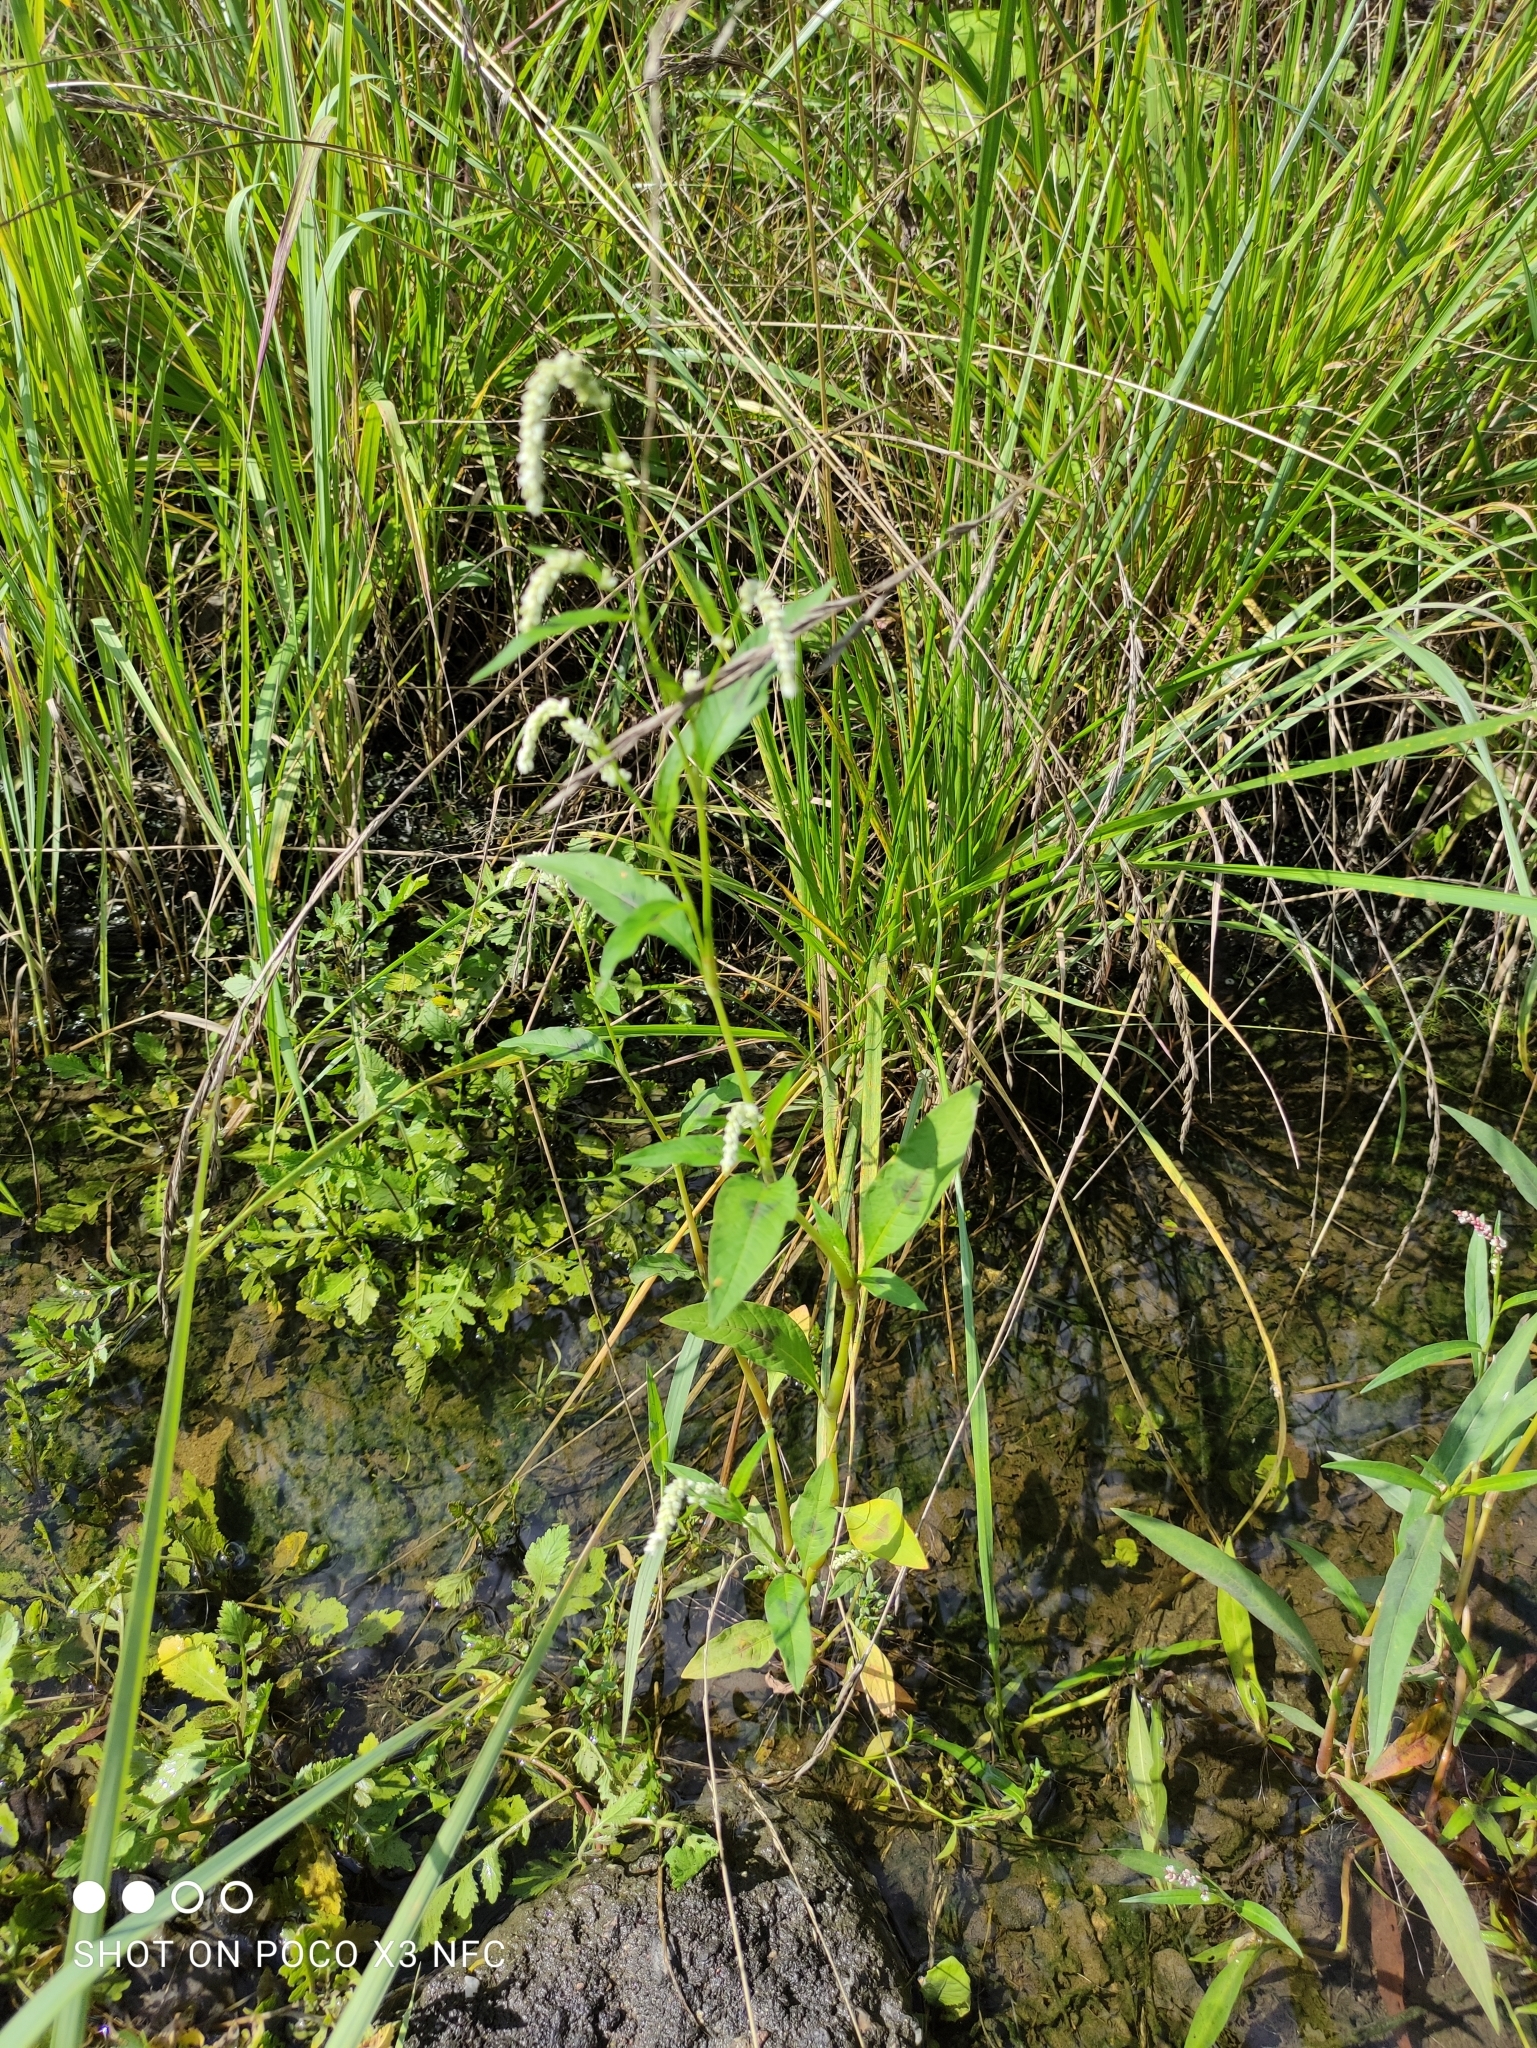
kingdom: Plantae
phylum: Tracheophyta
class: Magnoliopsida
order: Caryophyllales
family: Polygonaceae
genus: Persicaria
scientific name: Persicaria lapathifolia
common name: Curlytop knotweed
